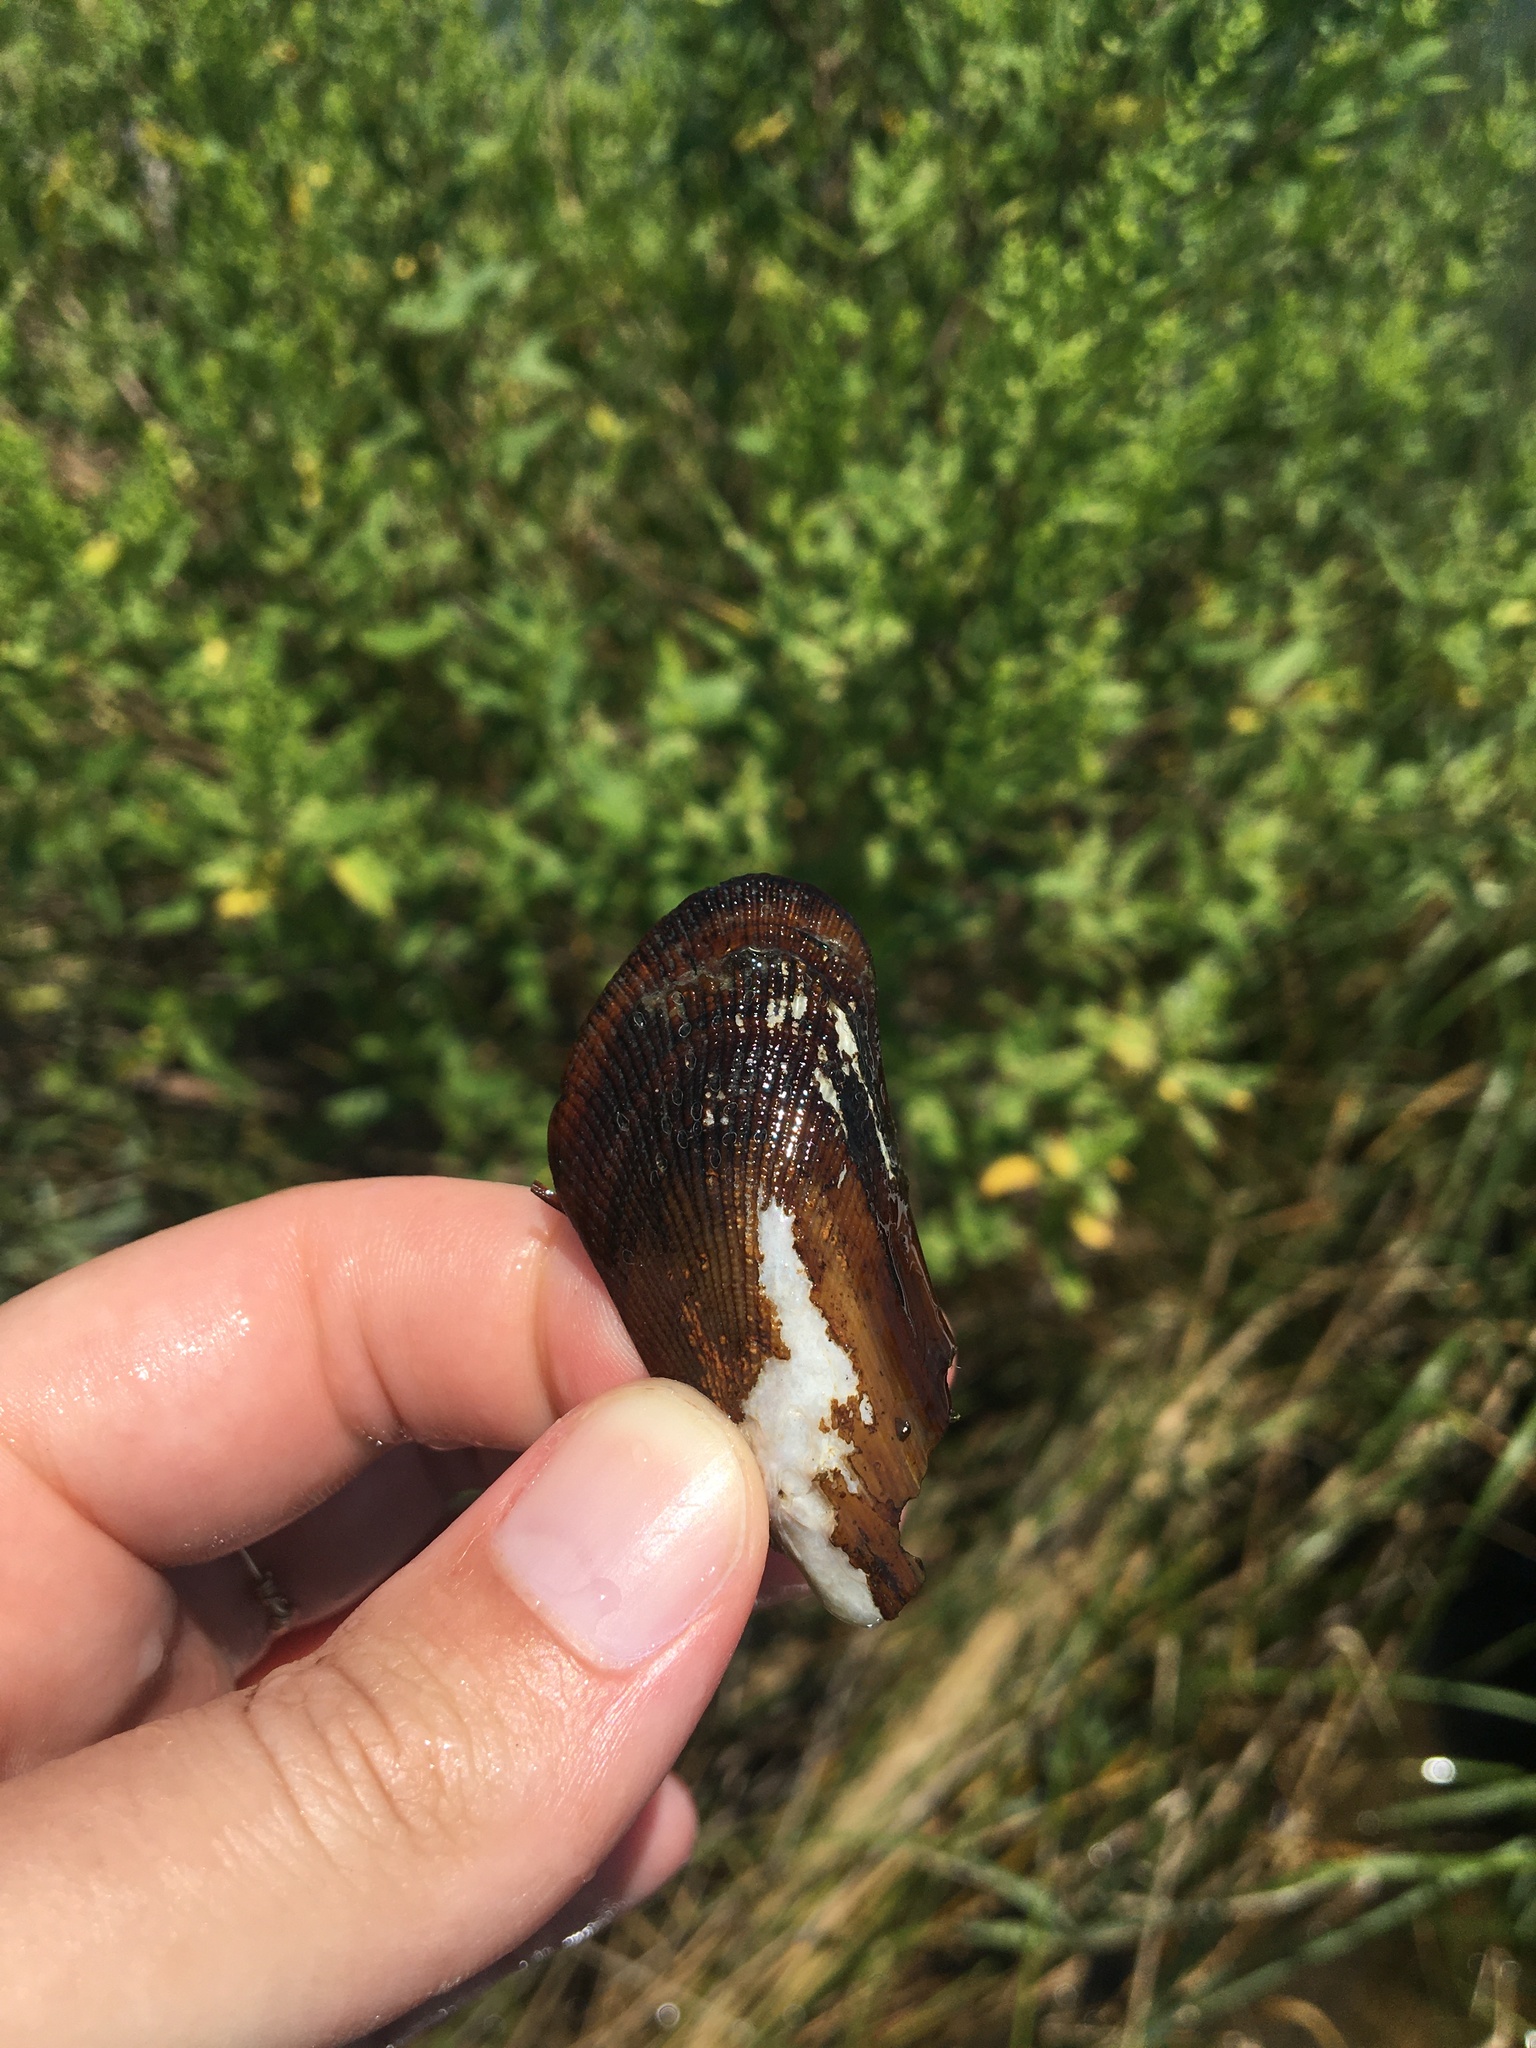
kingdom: Animalia
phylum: Mollusca
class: Bivalvia
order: Mytilida
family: Mytilidae
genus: Geukensia
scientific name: Geukensia granosissima
